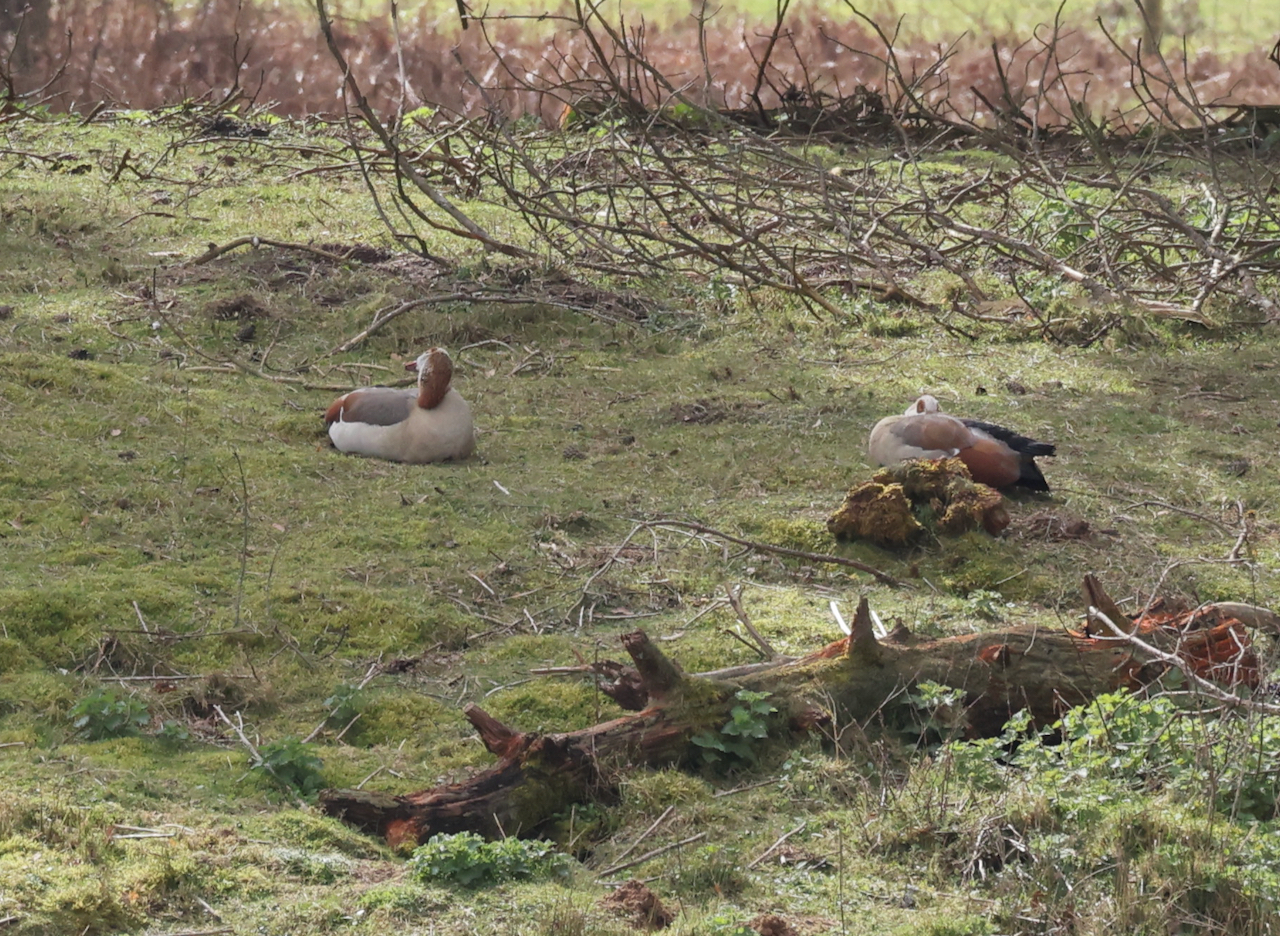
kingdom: Animalia
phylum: Chordata
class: Aves
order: Anseriformes
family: Anatidae
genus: Alopochen
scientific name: Alopochen aegyptiaca
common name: Egyptian goose
